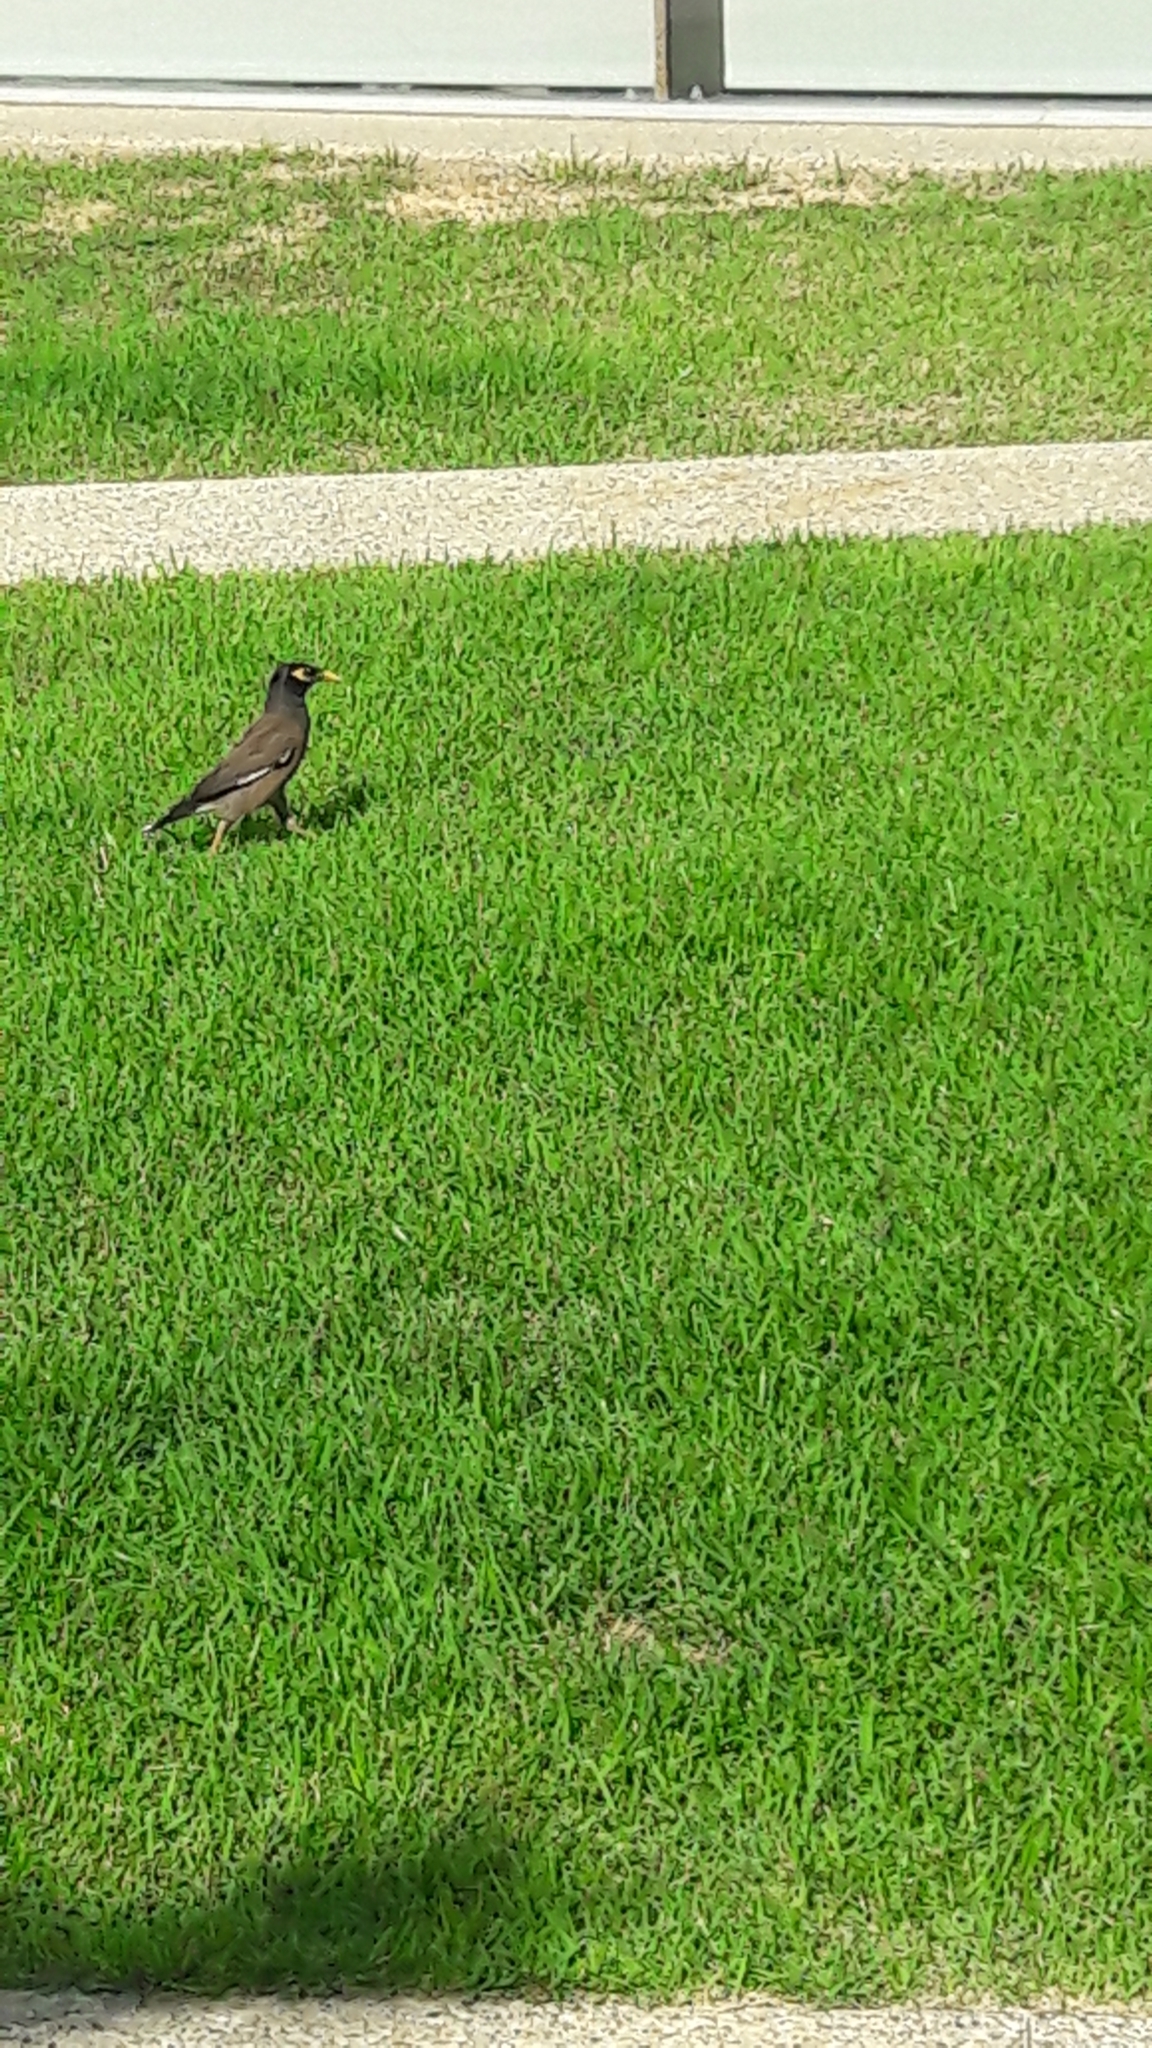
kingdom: Animalia
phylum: Chordata
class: Aves
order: Passeriformes
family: Sturnidae
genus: Acridotheres
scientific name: Acridotheres tristis
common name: Common myna
